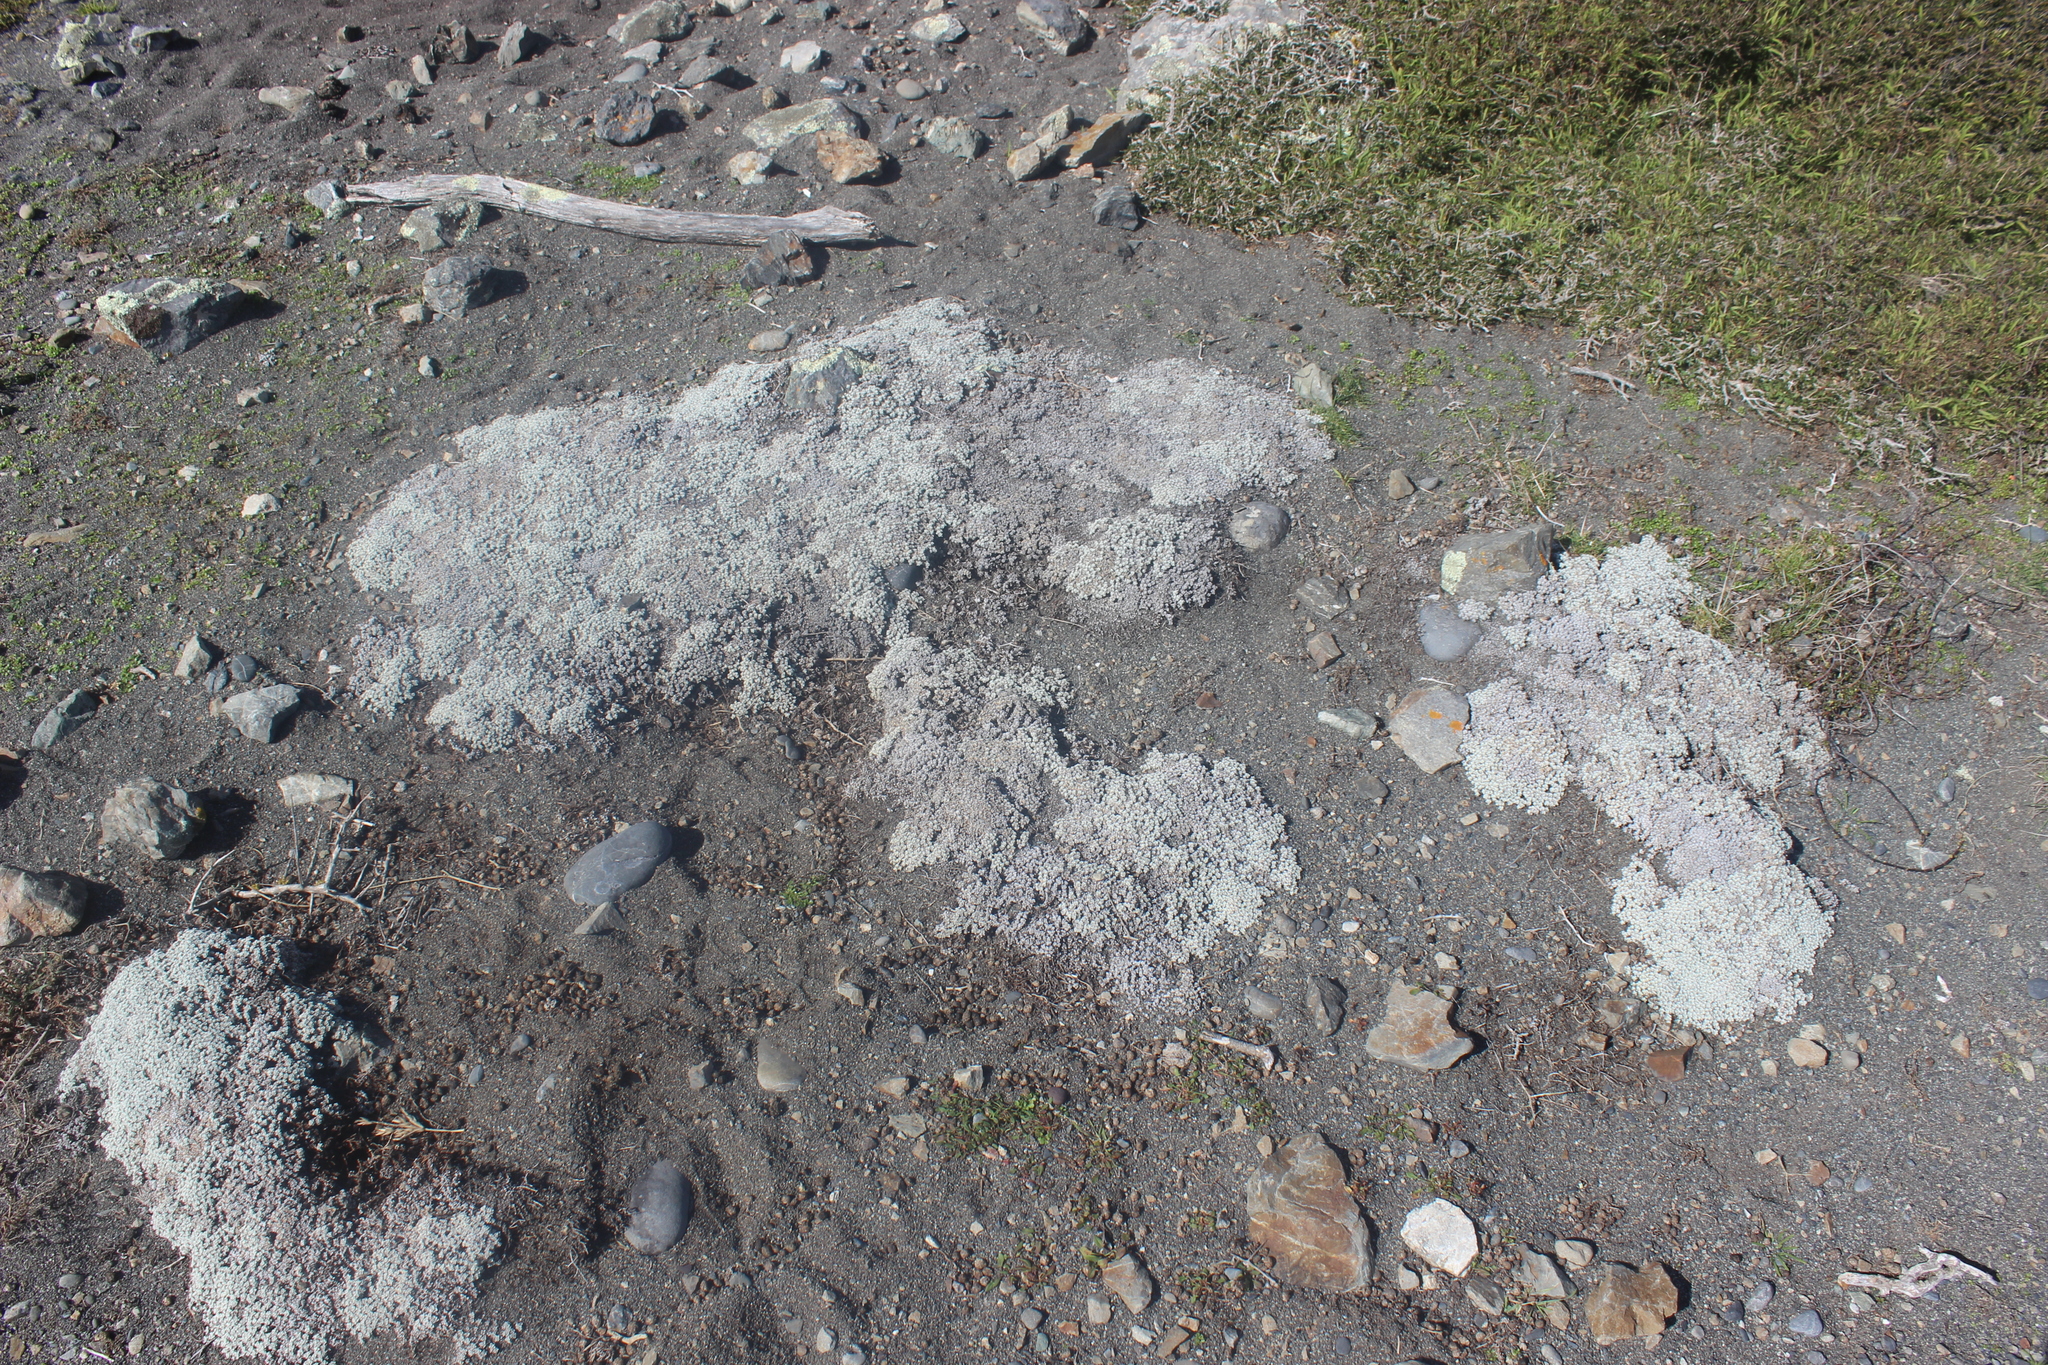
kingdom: Plantae
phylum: Tracheophyta
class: Magnoliopsida
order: Asterales
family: Asteraceae
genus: Raoulia
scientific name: Raoulia hookeri
